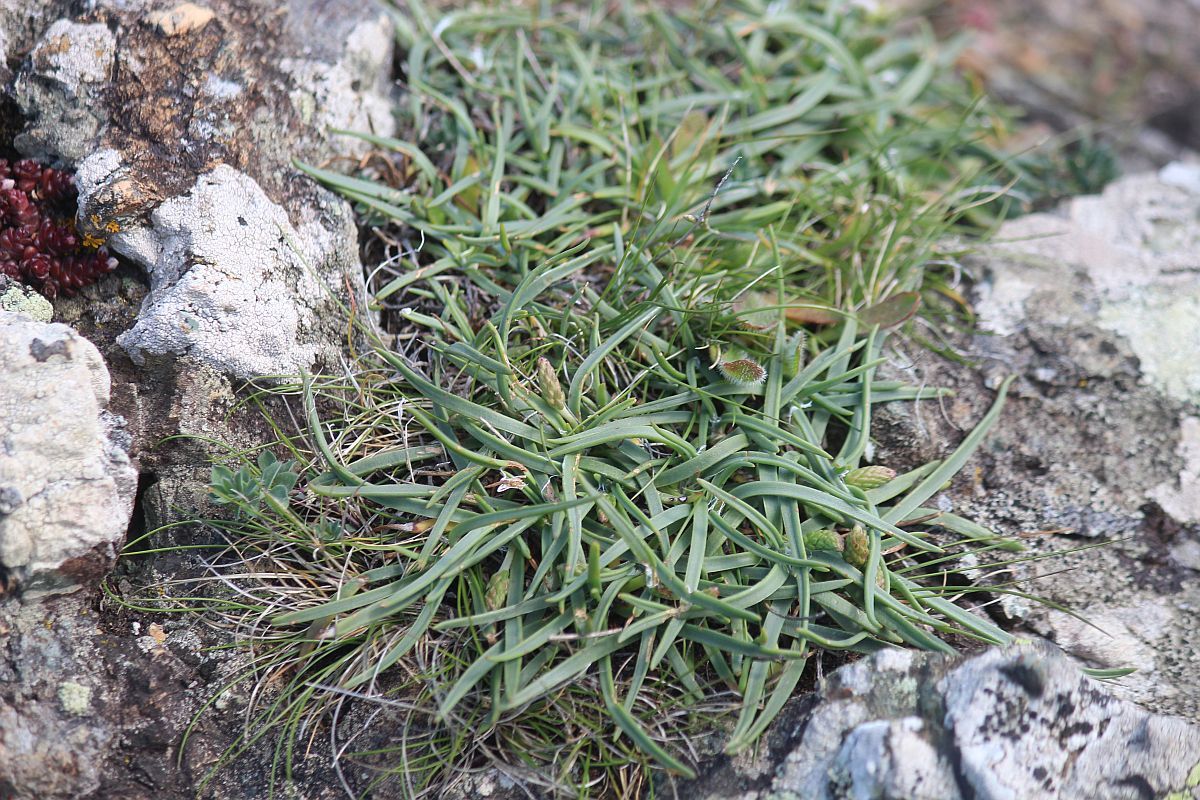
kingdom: Plantae
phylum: Tracheophyta
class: Magnoliopsida
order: Lamiales
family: Plantaginaceae
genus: Plantago
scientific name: Plantago maritima
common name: Sea plantain
